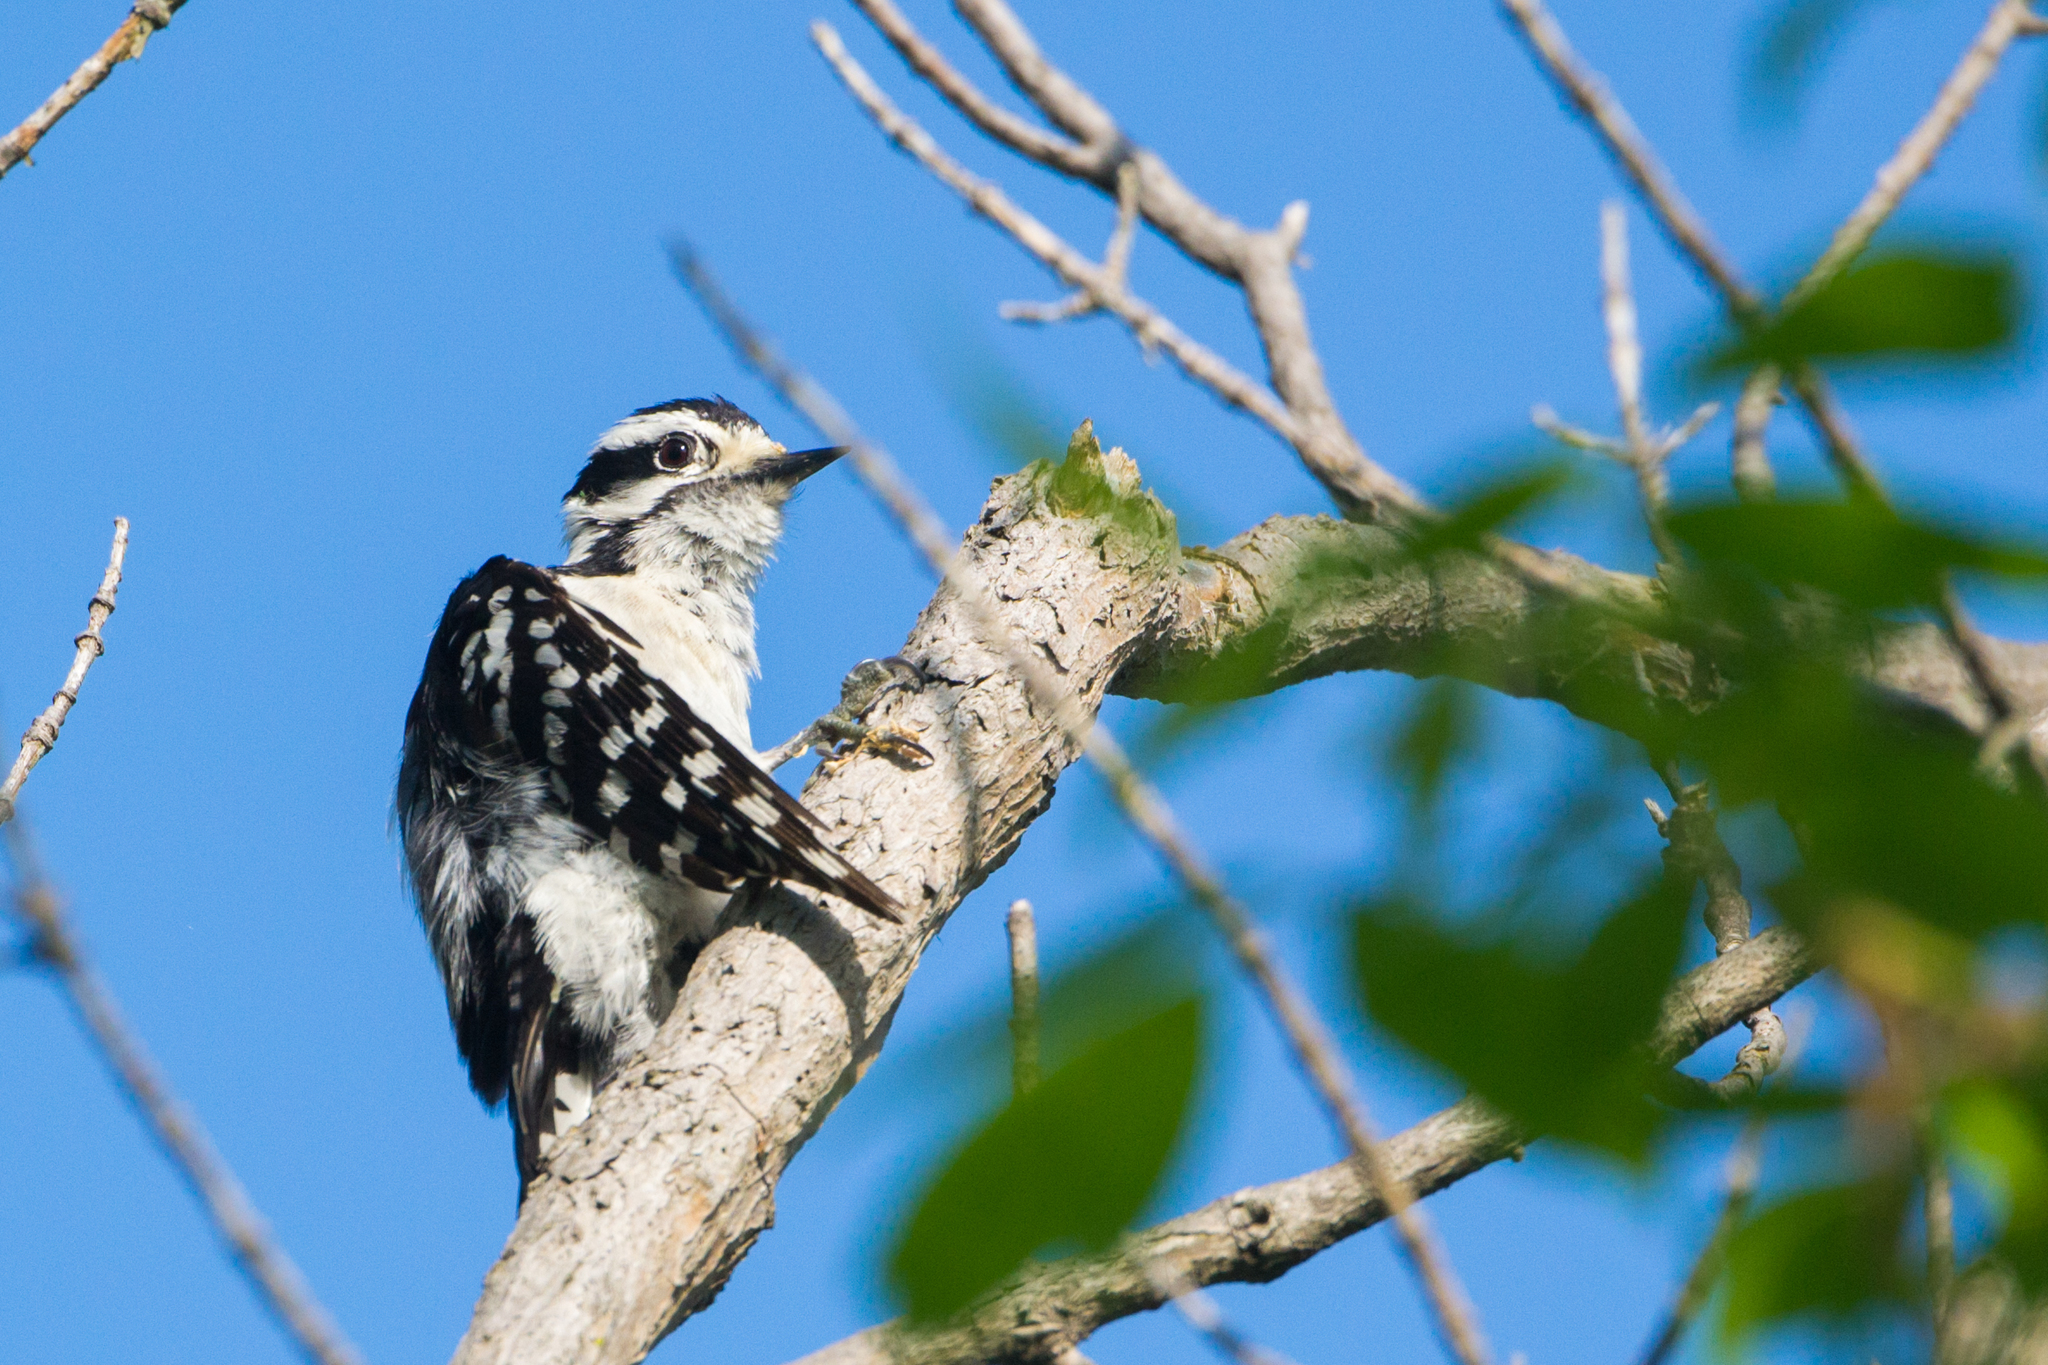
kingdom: Animalia
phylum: Chordata
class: Aves
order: Piciformes
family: Picidae
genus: Dryobates
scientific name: Dryobates pubescens
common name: Downy woodpecker
